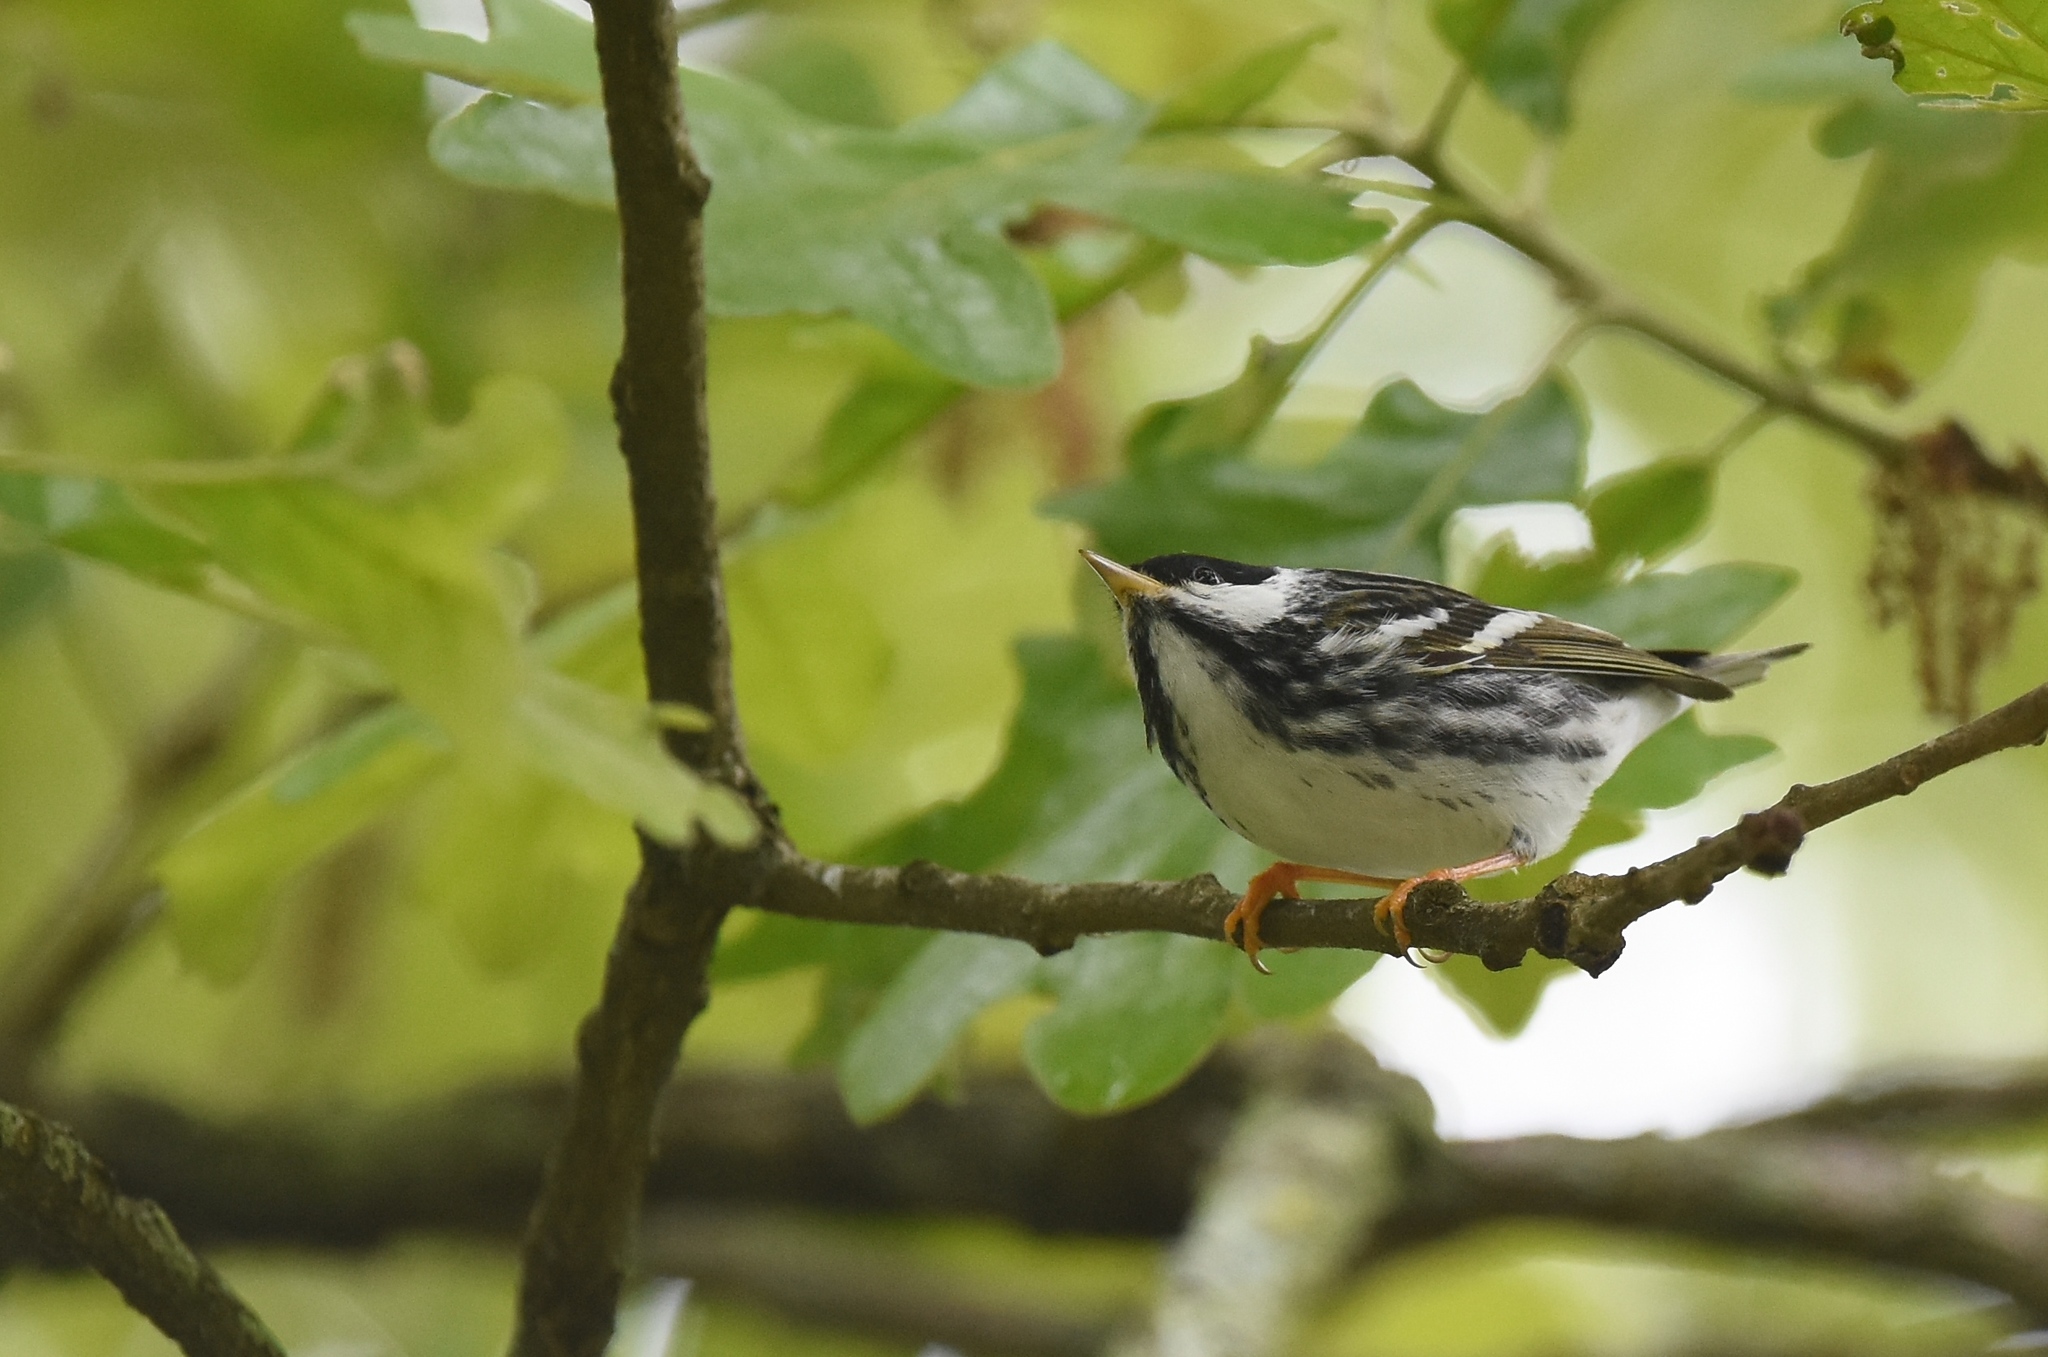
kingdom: Animalia
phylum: Chordata
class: Aves
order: Passeriformes
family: Parulidae
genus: Setophaga
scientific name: Setophaga striata
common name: Blackpoll warbler
